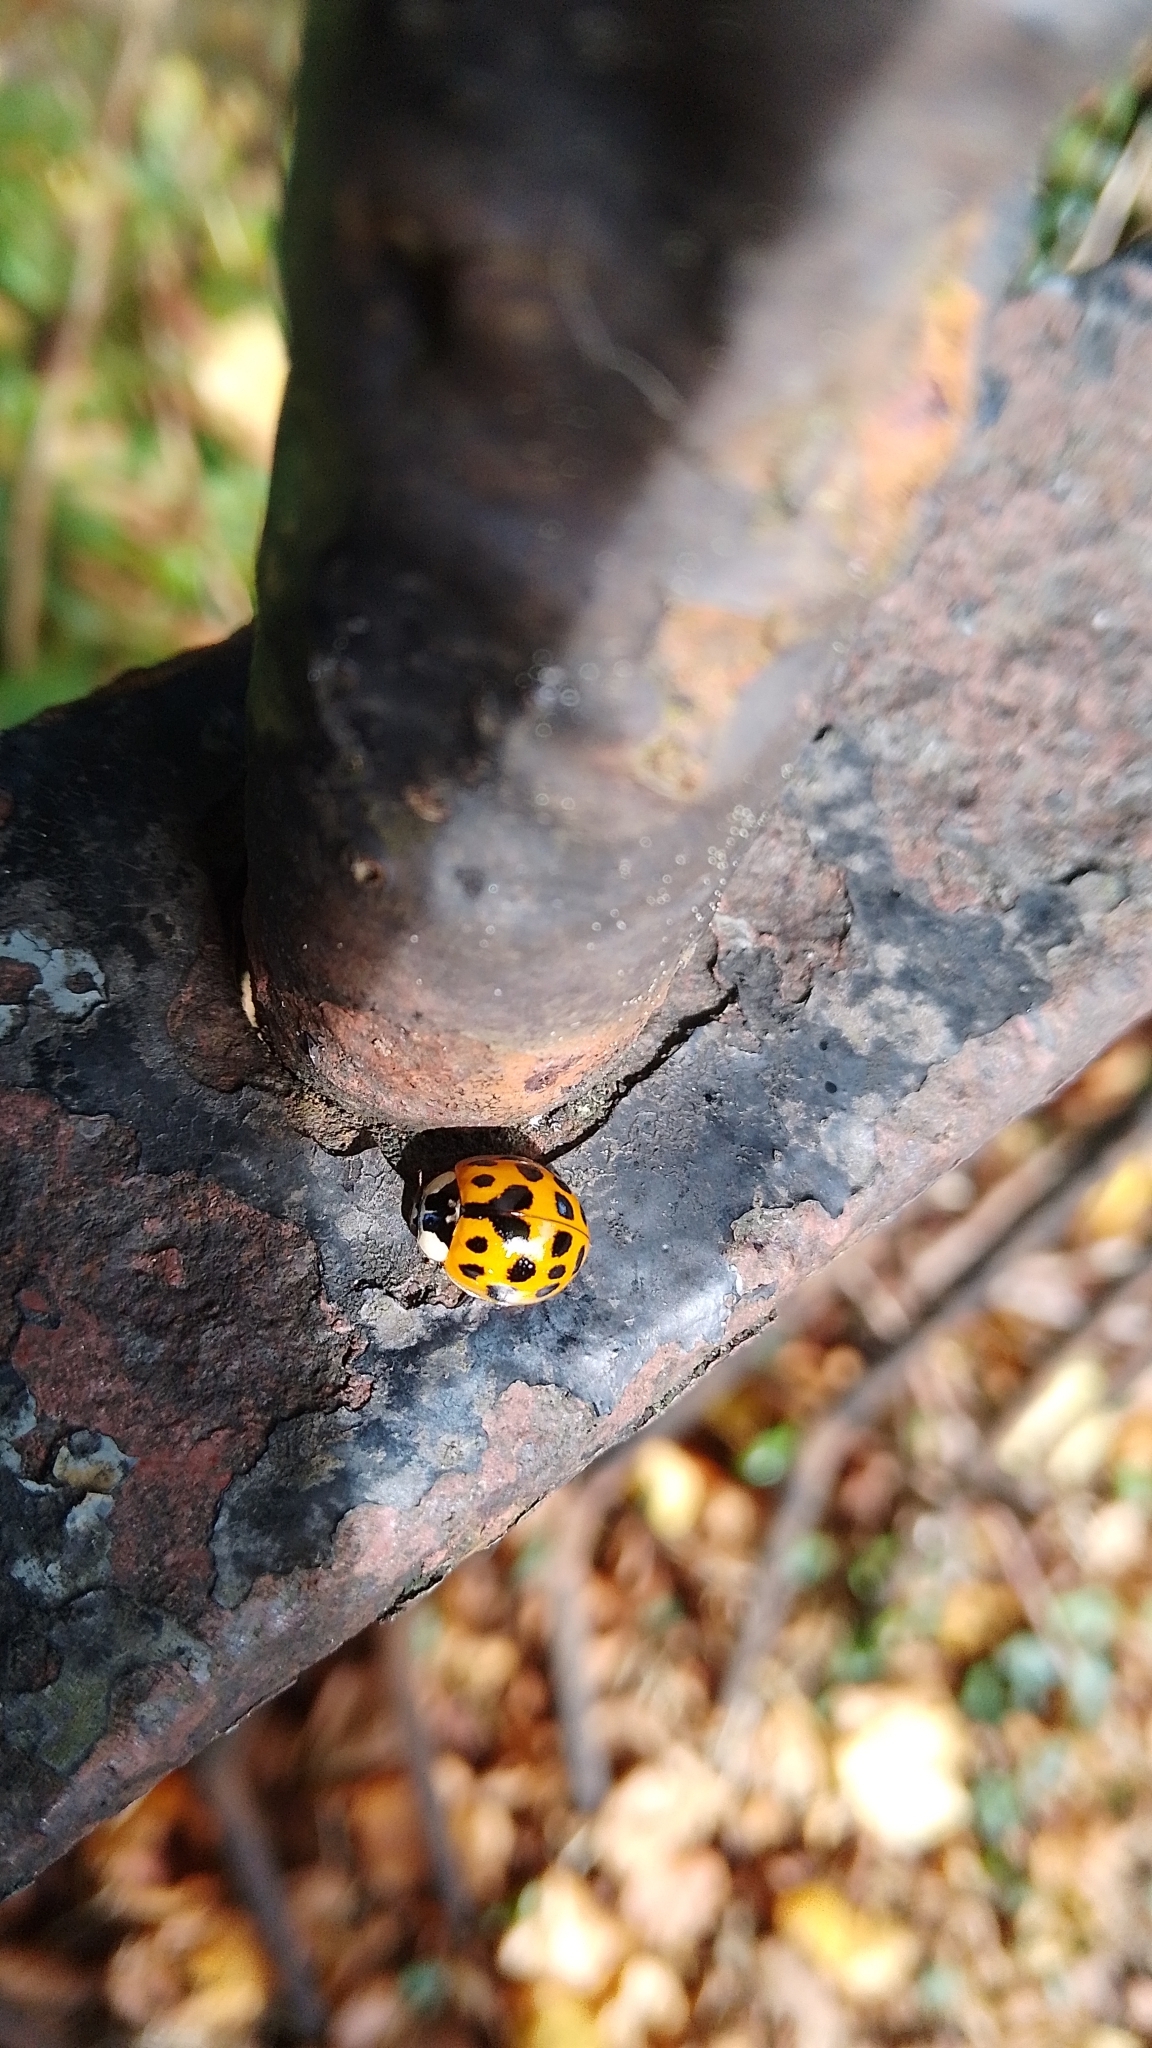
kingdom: Animalia
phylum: Arthropoda
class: Insecta
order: Coleoptera
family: Coccinellidae
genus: Harmonia
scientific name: Harmonia axyridis
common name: Harlequin ladybird
